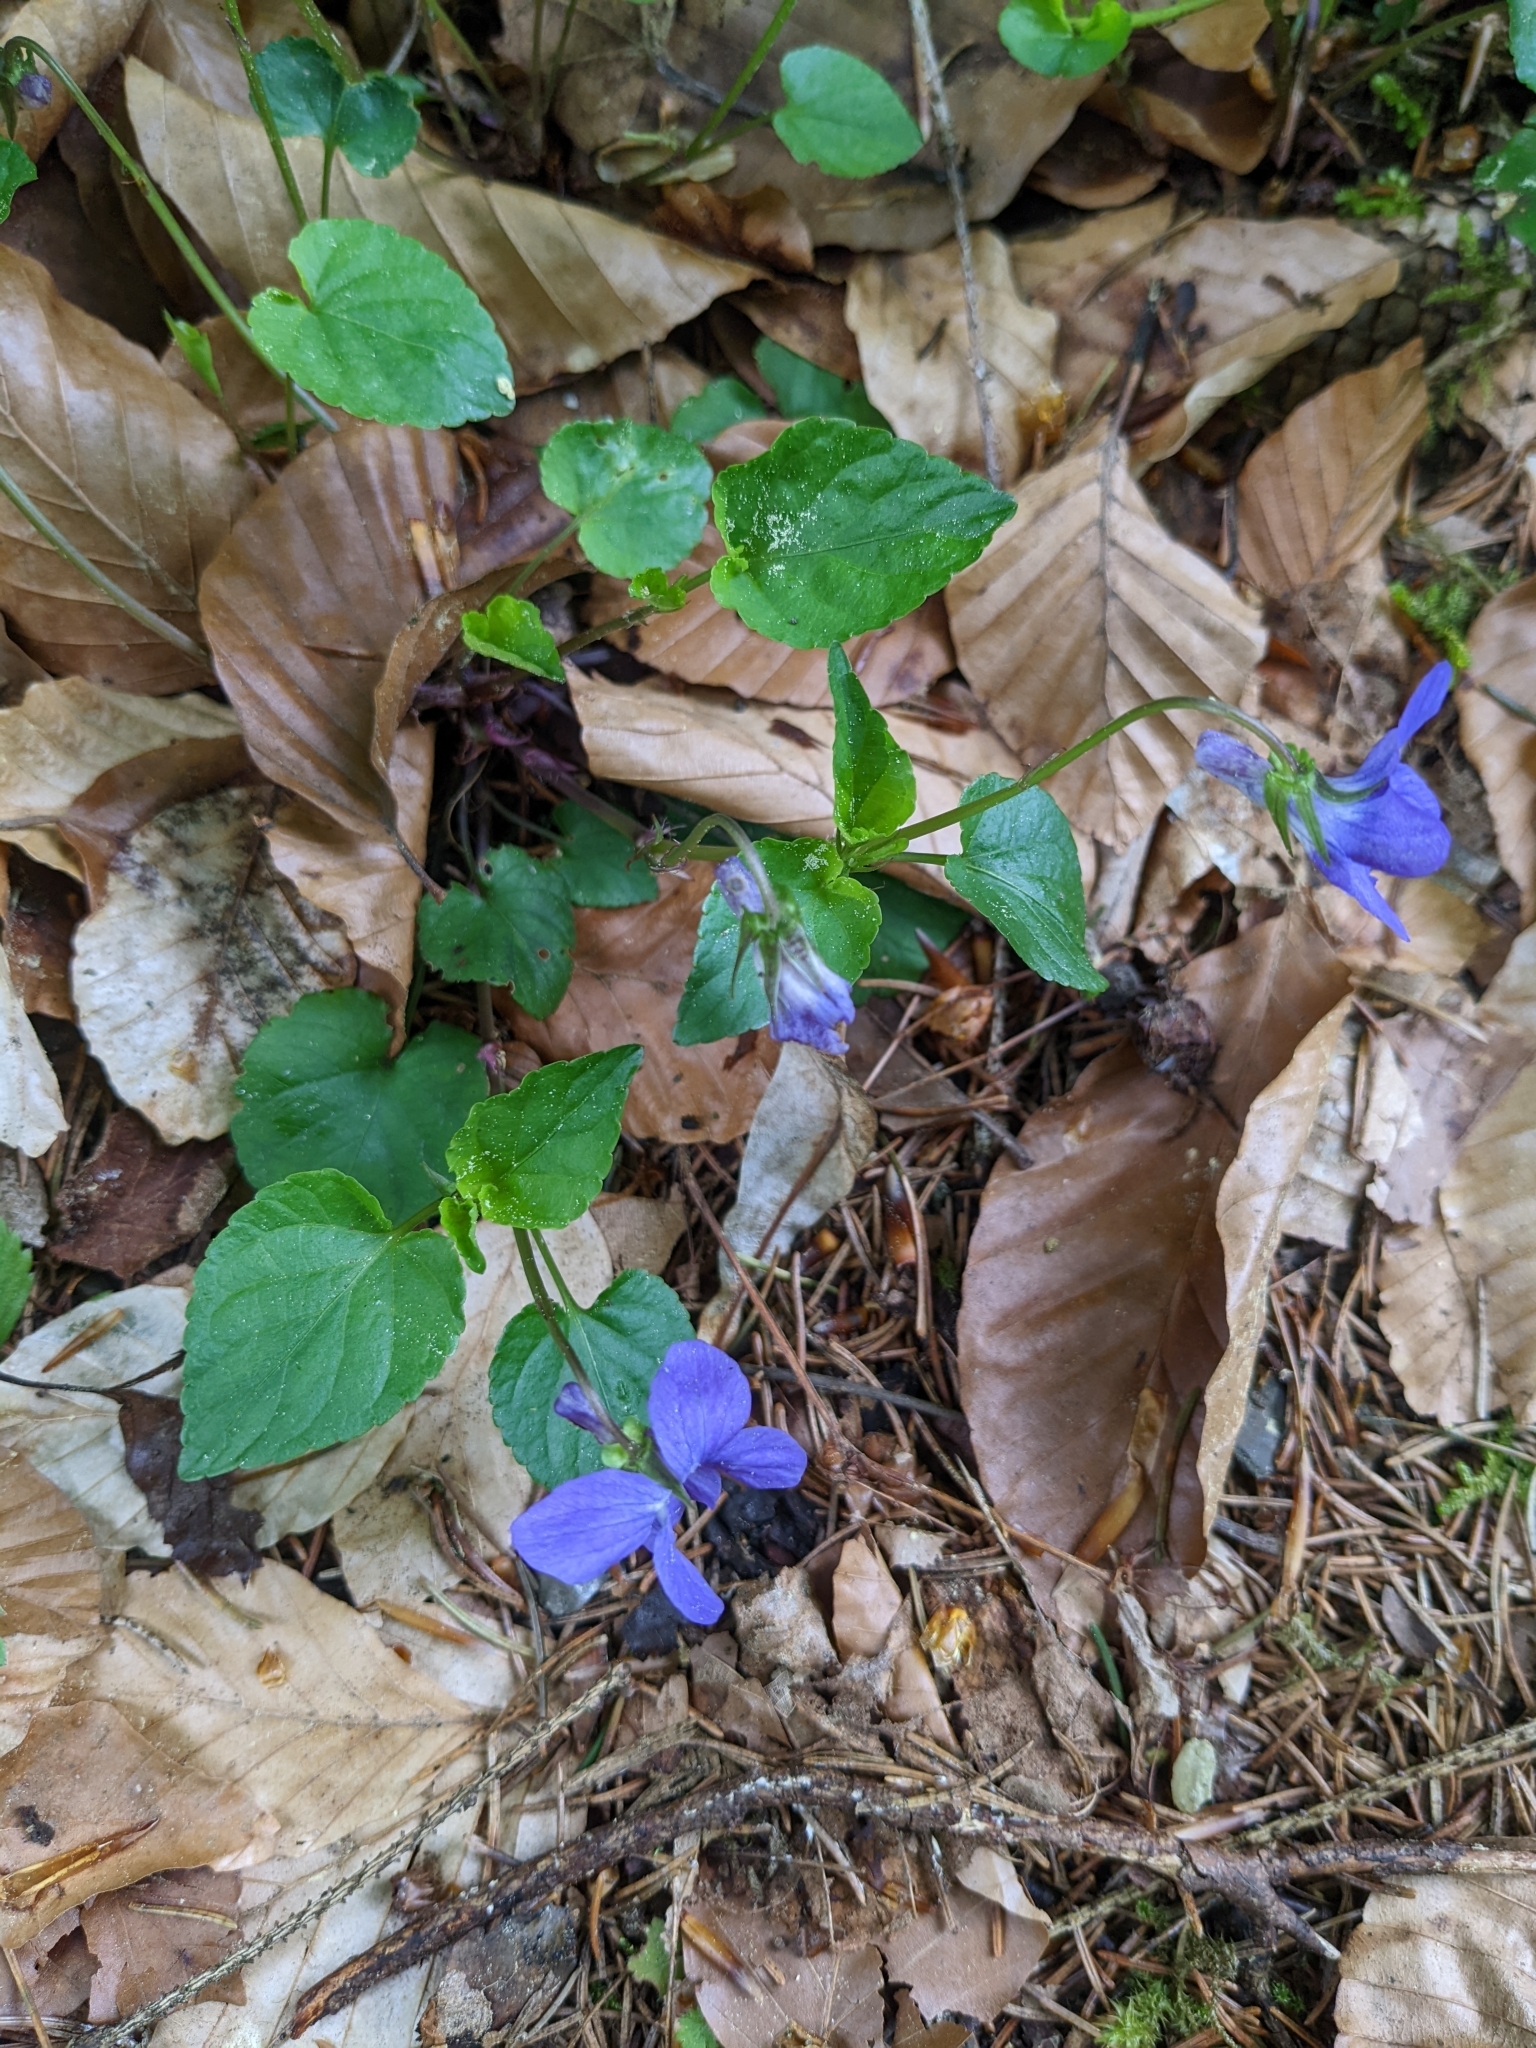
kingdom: Plantae
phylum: Tracheophyta
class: Magnoliopsida
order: Malpighiales
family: Violaceae
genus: Viola
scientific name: Viola reichenbachiana
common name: Early dog-violet
